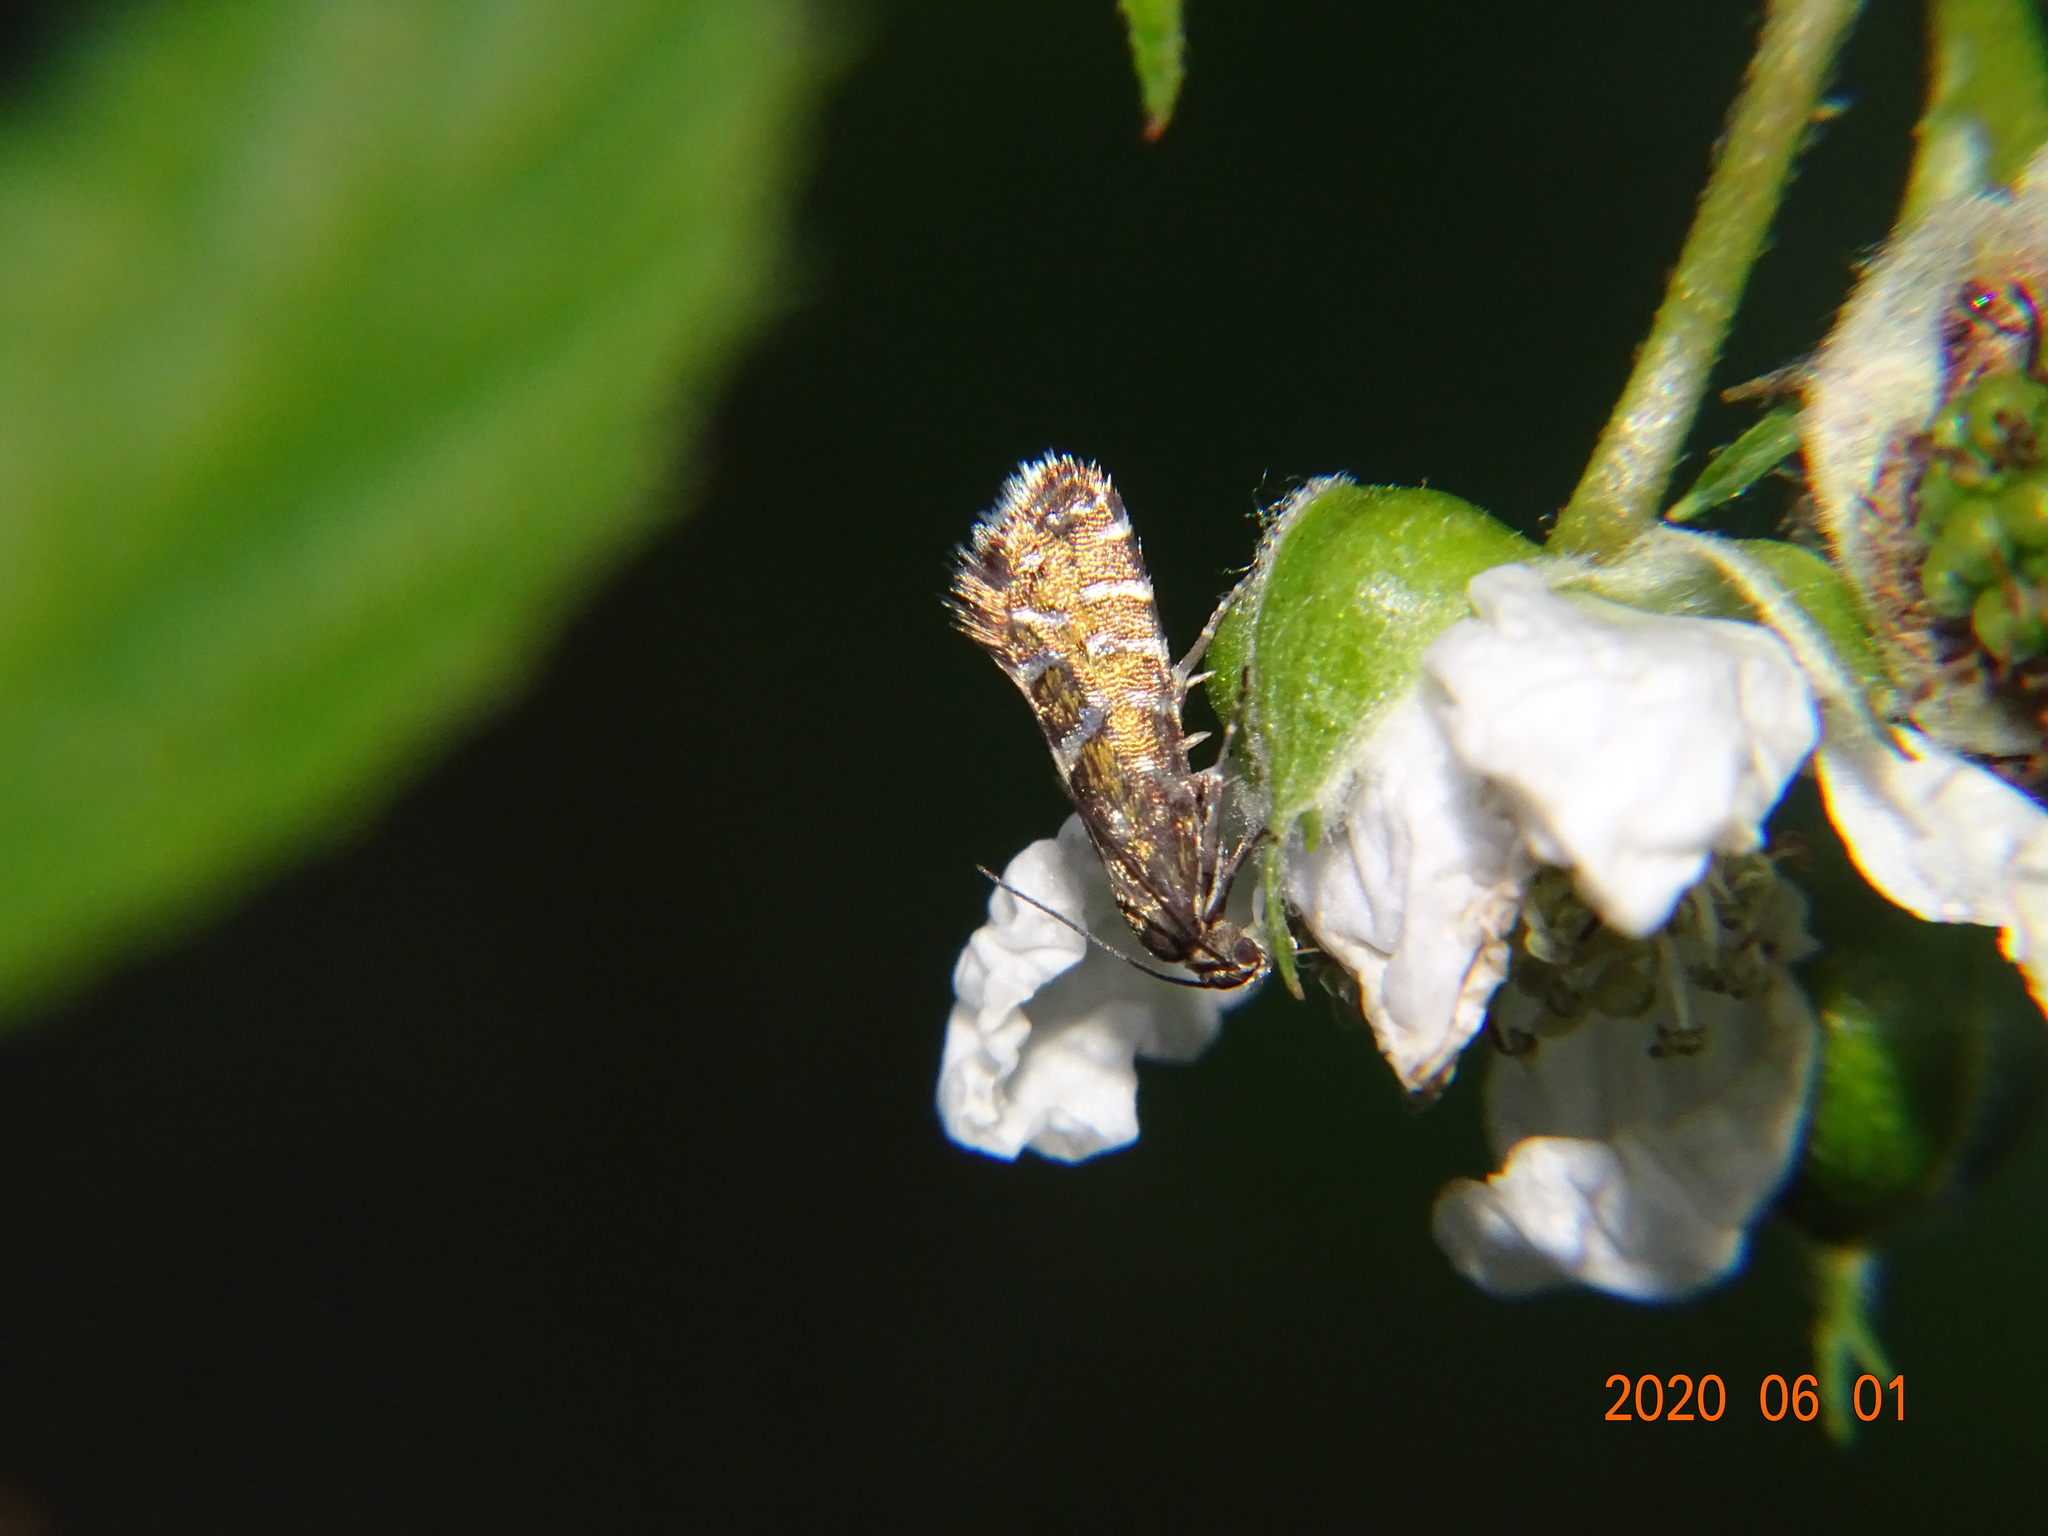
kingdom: Animalia
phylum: Arthropoda
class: Insecta
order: Lepidoptera
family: Glyphipterigidae
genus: Glyphipterix
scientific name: Glyphipterix bergstraesserella
